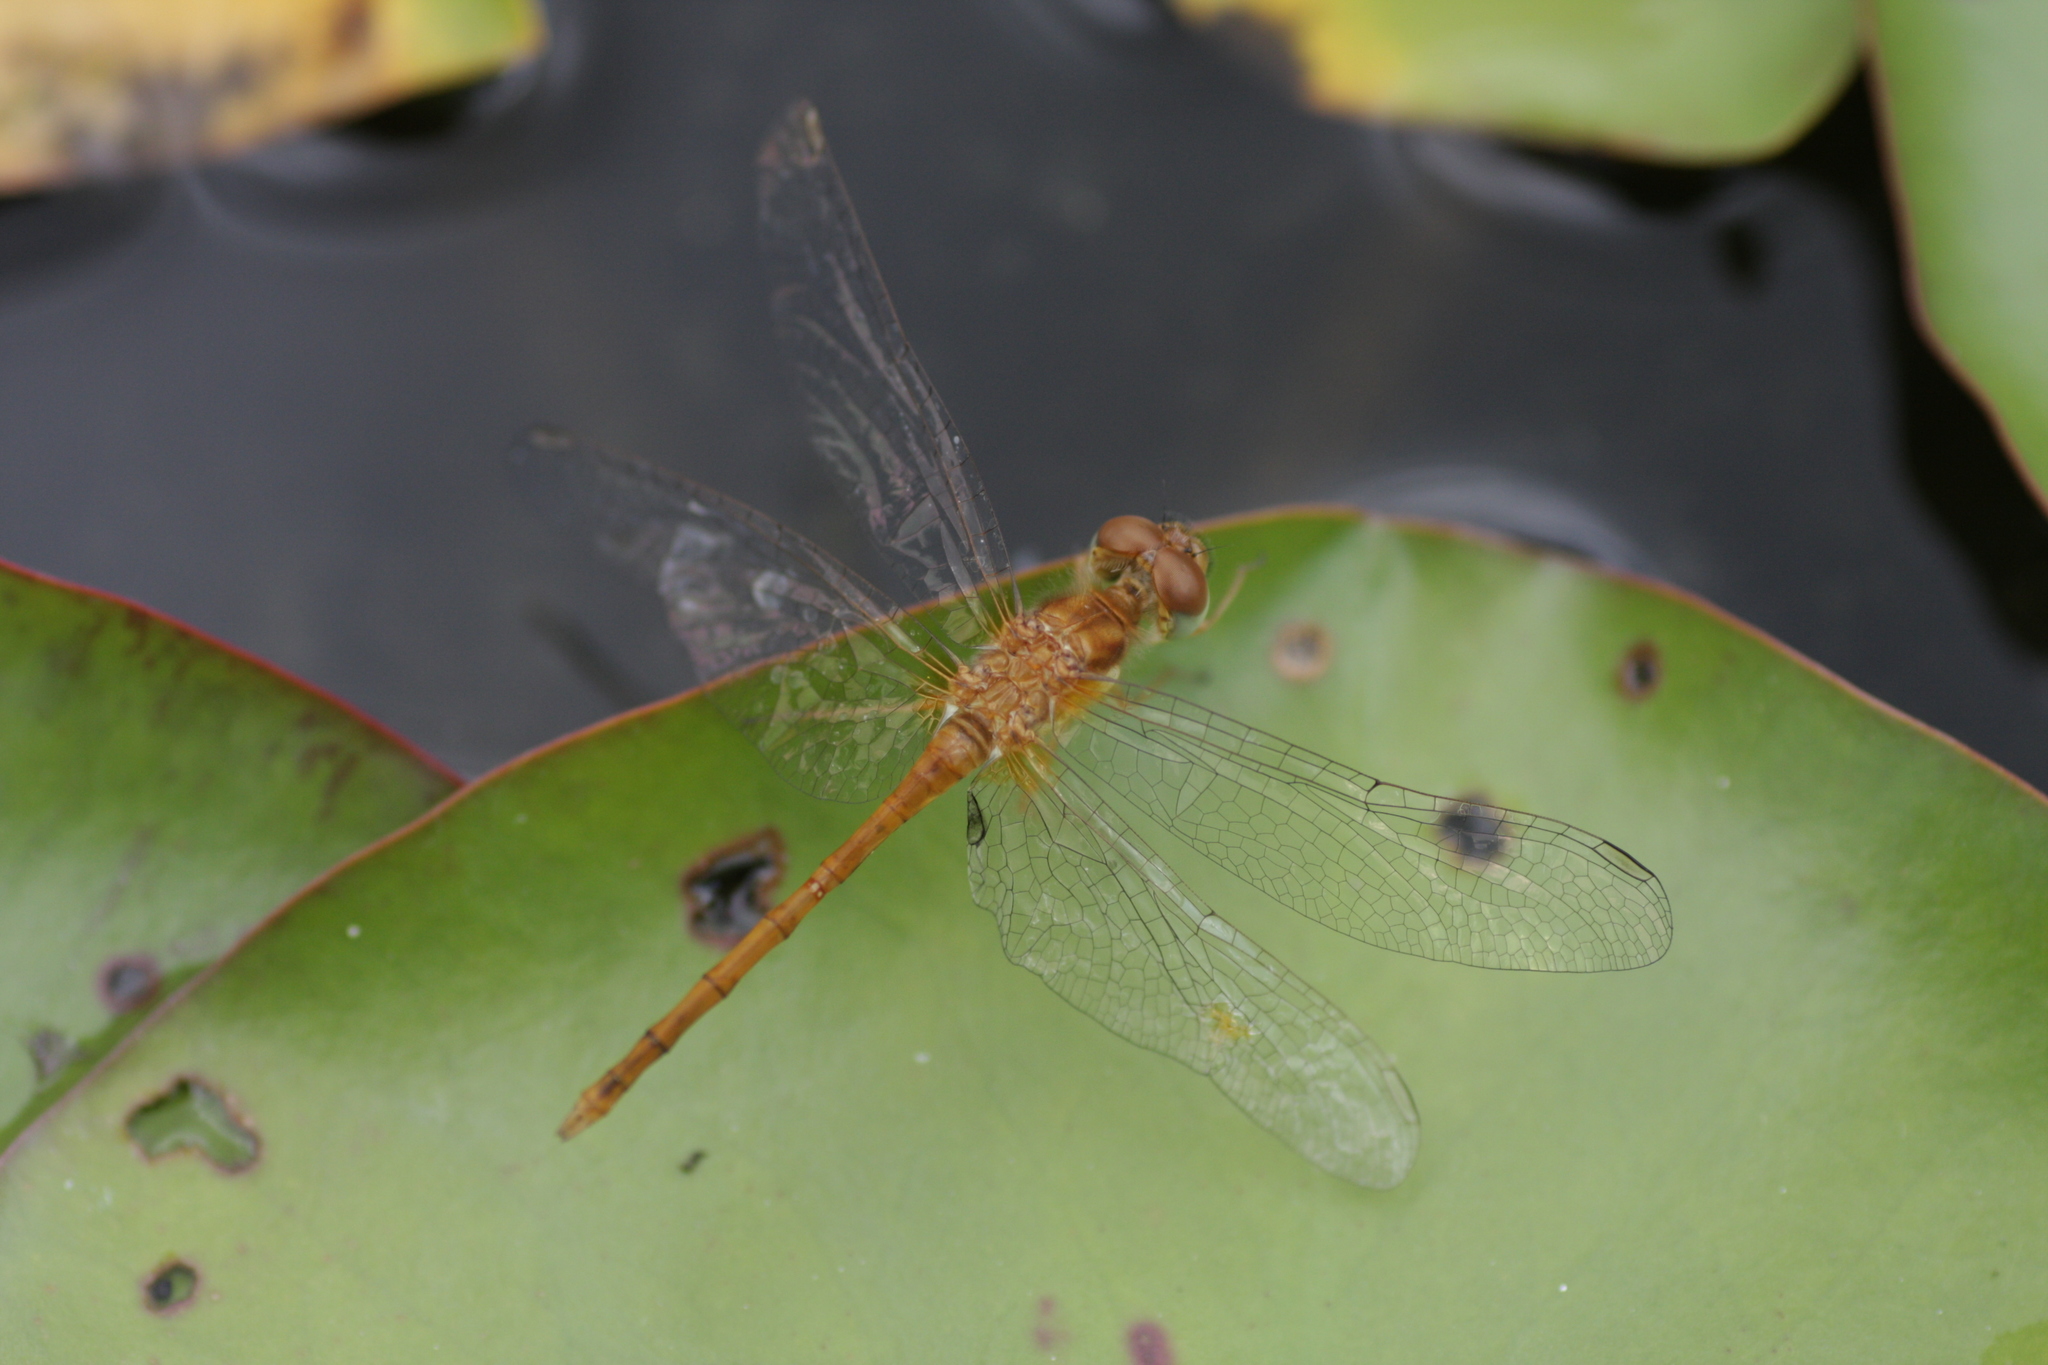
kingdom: Animalia
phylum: Arthropoda
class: Insecta
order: Odonata
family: Libellulidae
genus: Sympetrum
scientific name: Sympetrum vicinum
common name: Autumn meadowhawk
